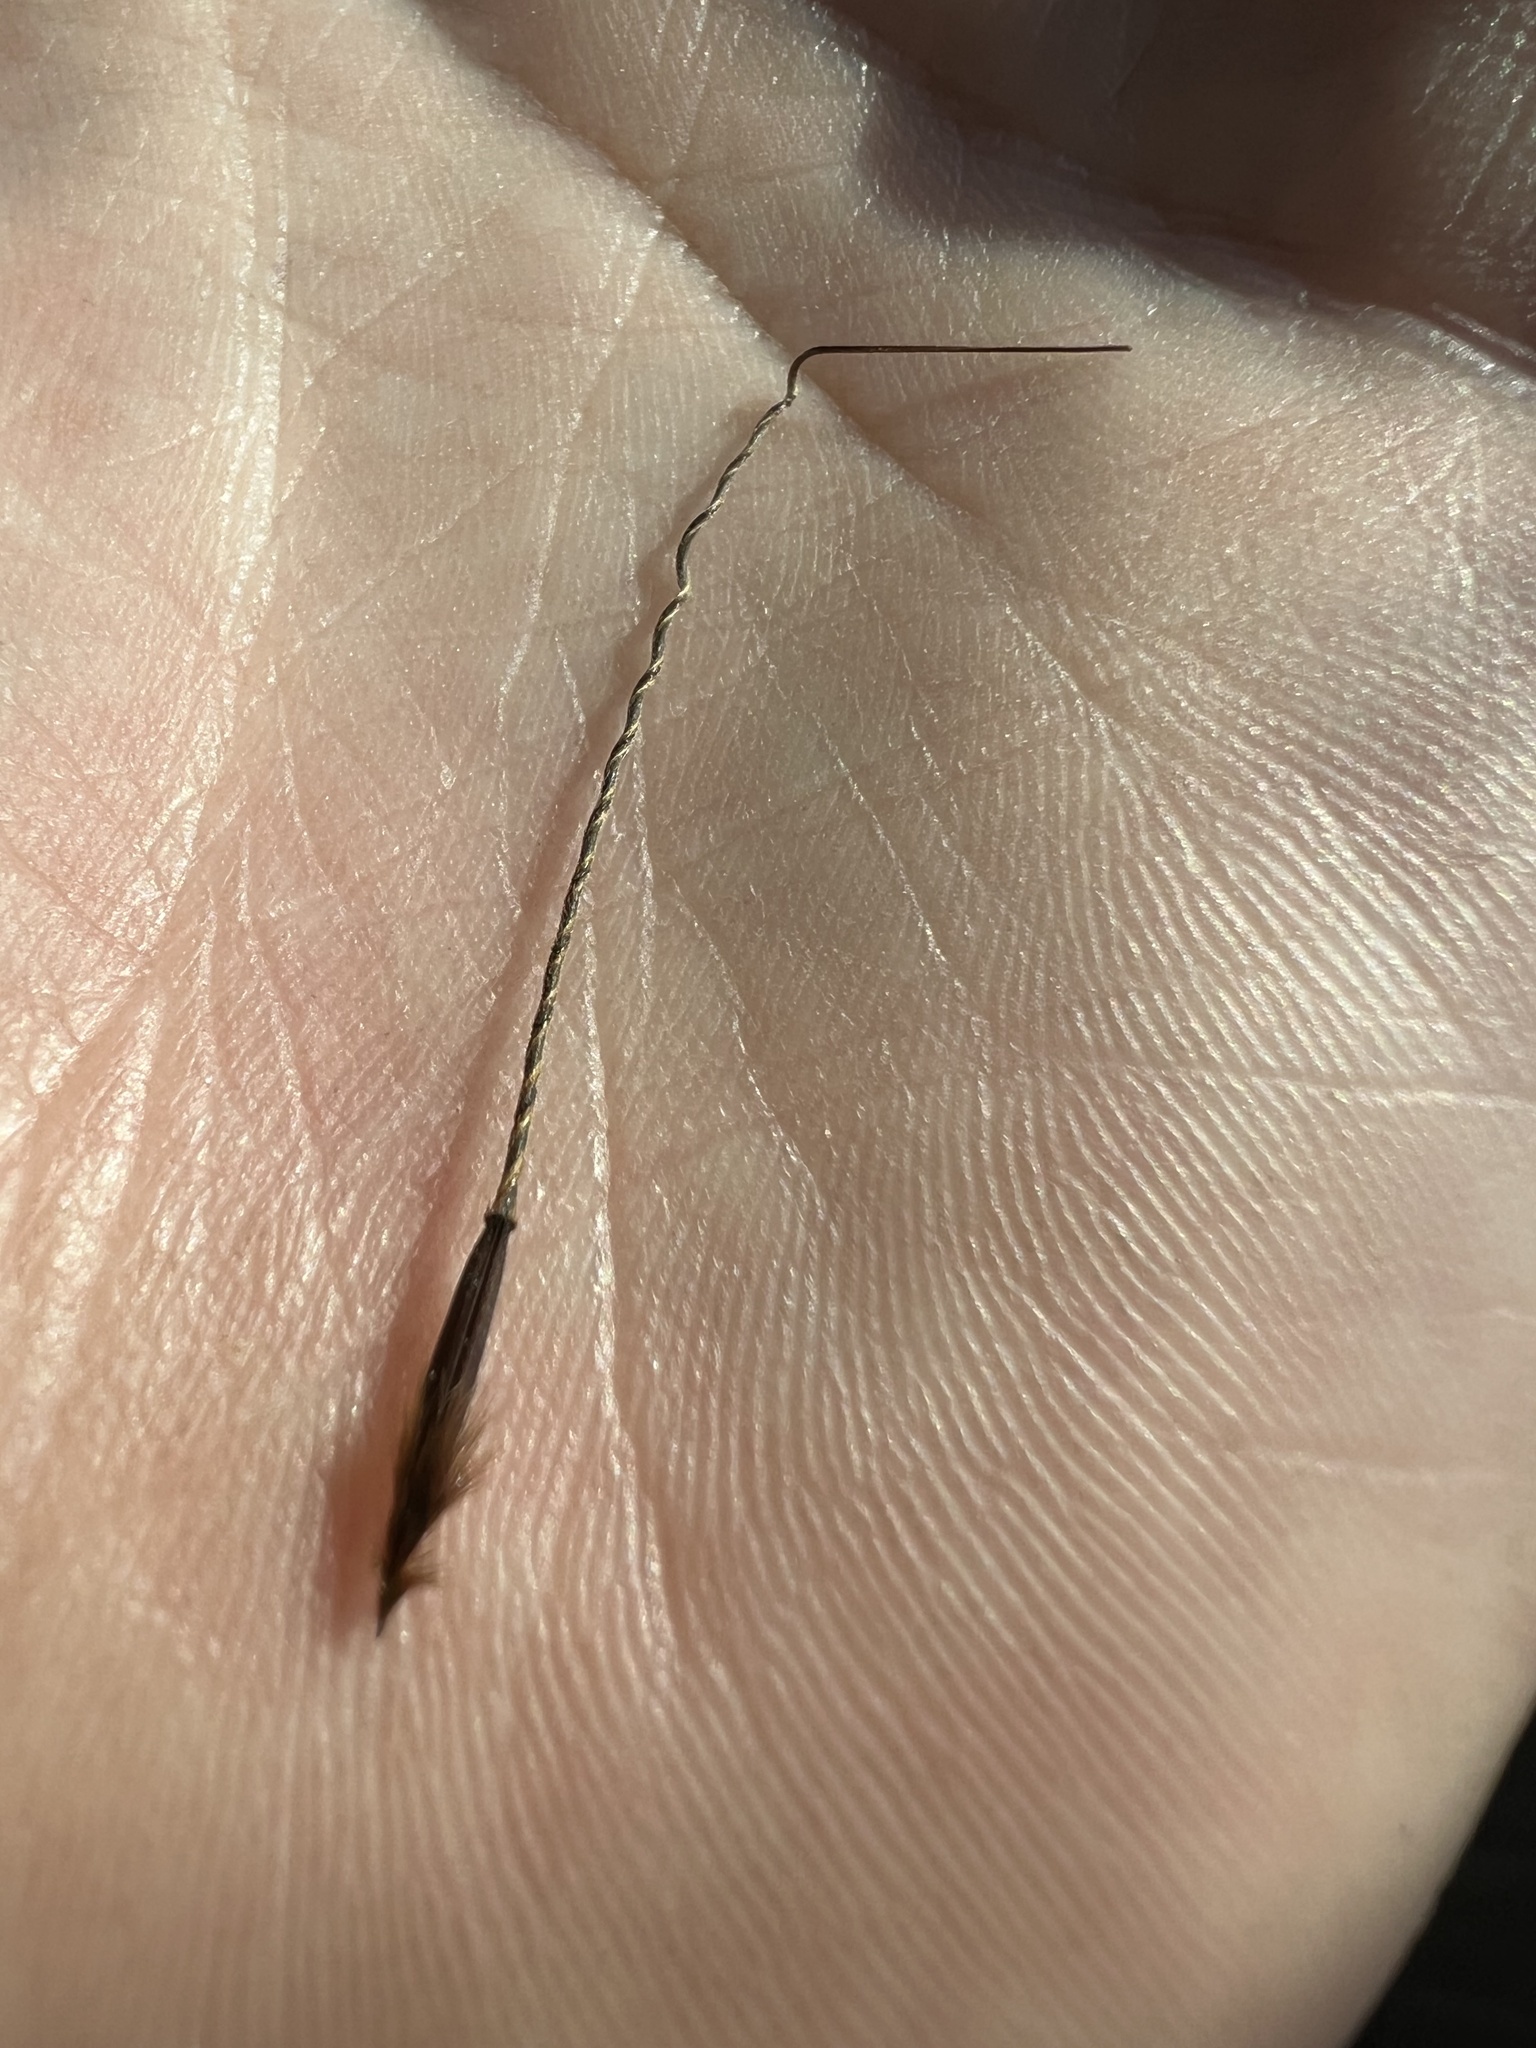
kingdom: Plantae
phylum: Tracheophyta
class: Liliopsida
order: Poales
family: Poaceae
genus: Piptochaetium
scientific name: Piptochaetium avenaceum
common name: Black bunchgrass
